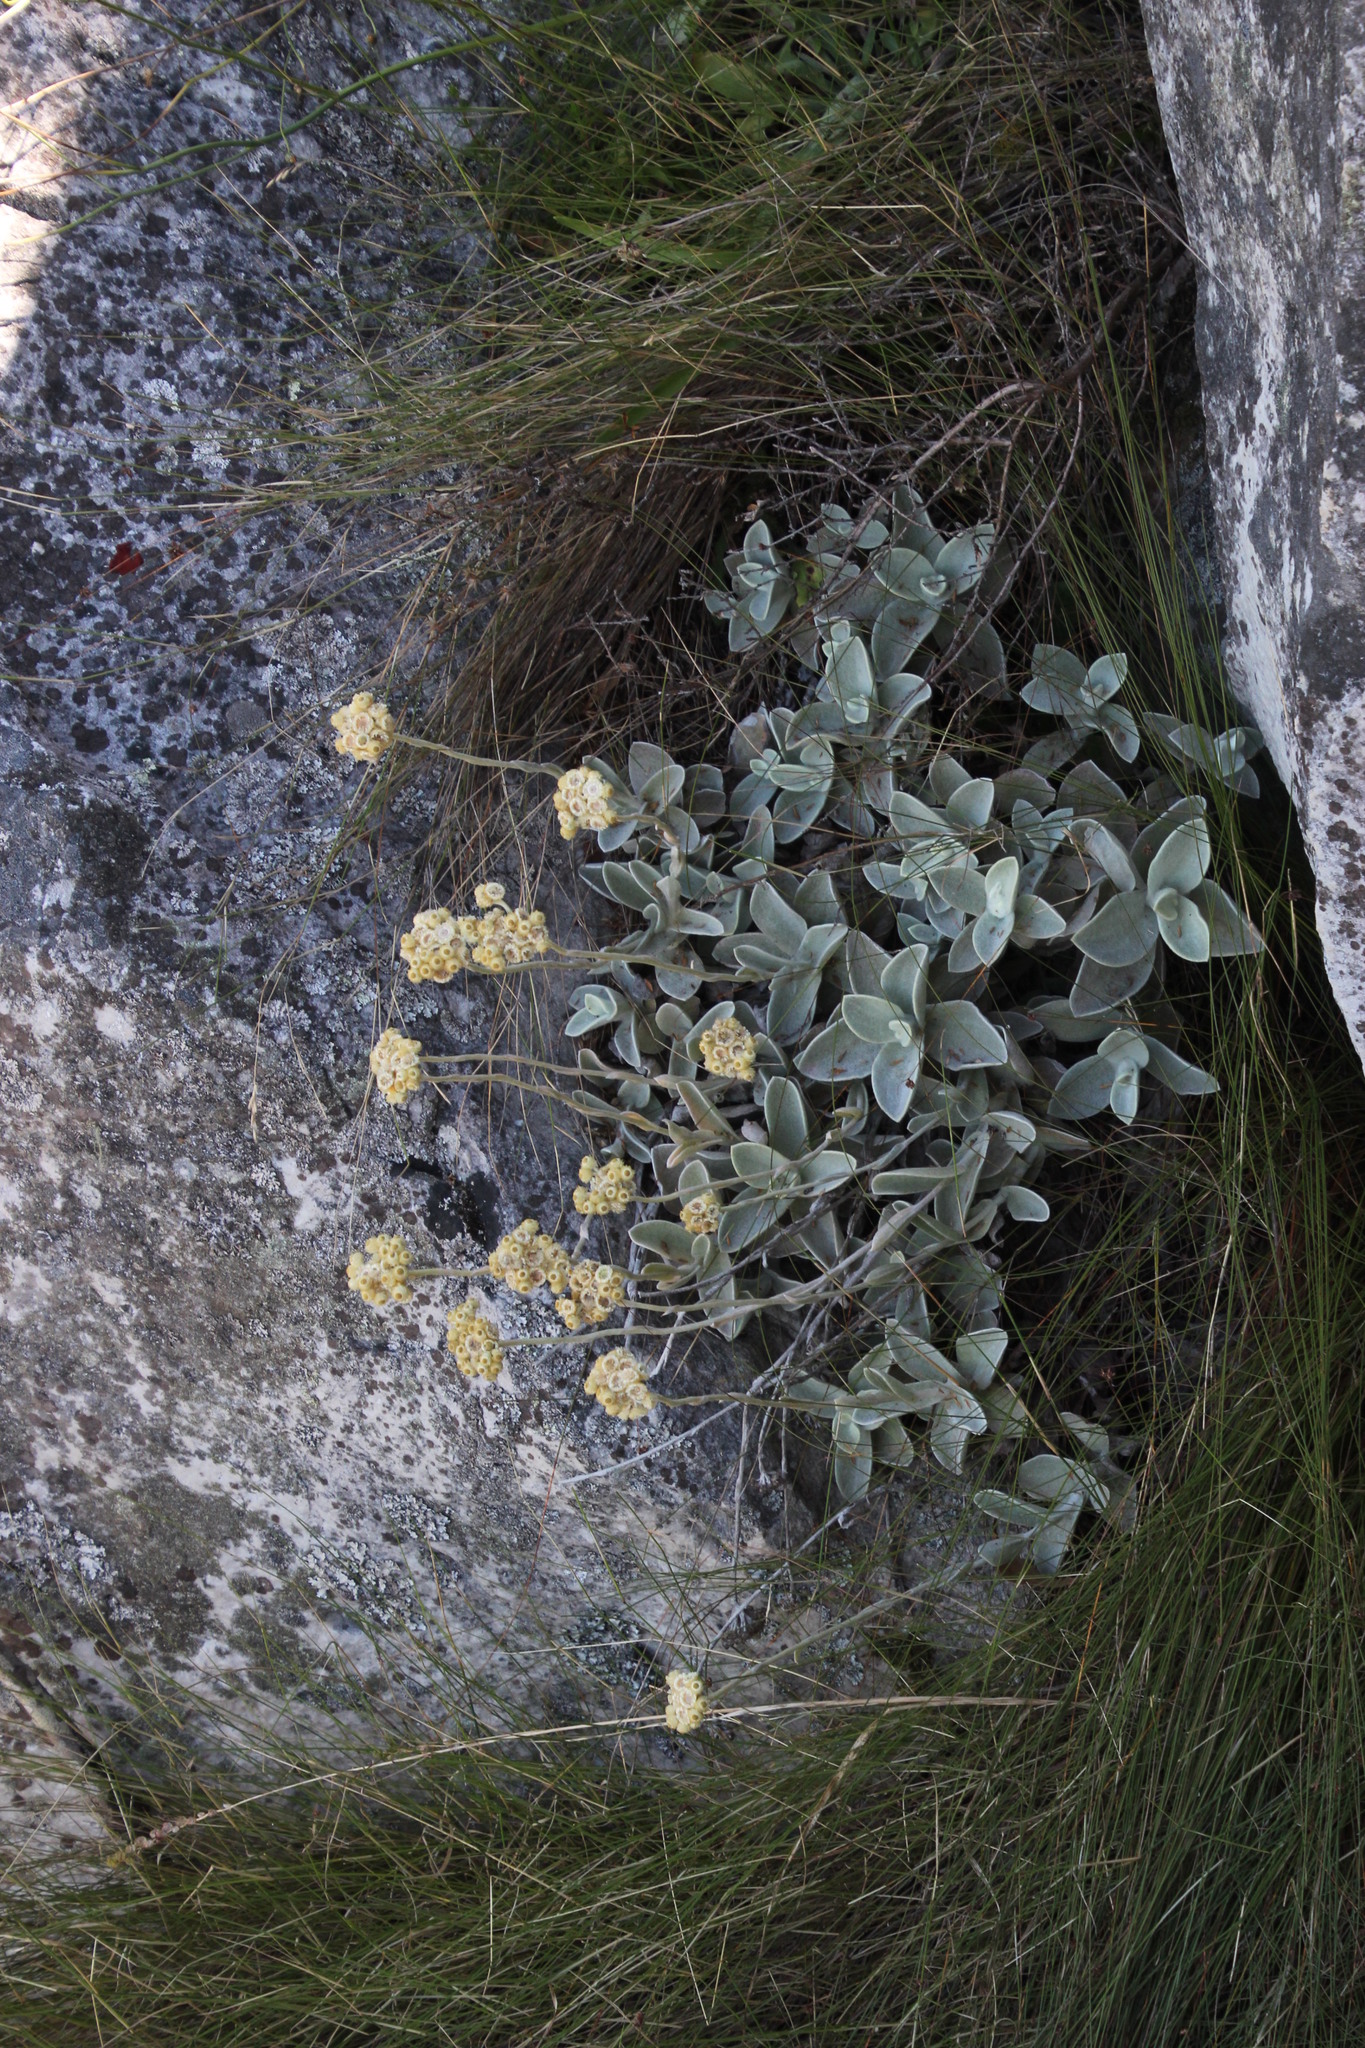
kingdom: Plantae
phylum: Tracheophyta
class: Magnoliopsida
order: Asterales
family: Asteraceae
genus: Helichrysum
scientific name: Helichrysum grandiflorum
